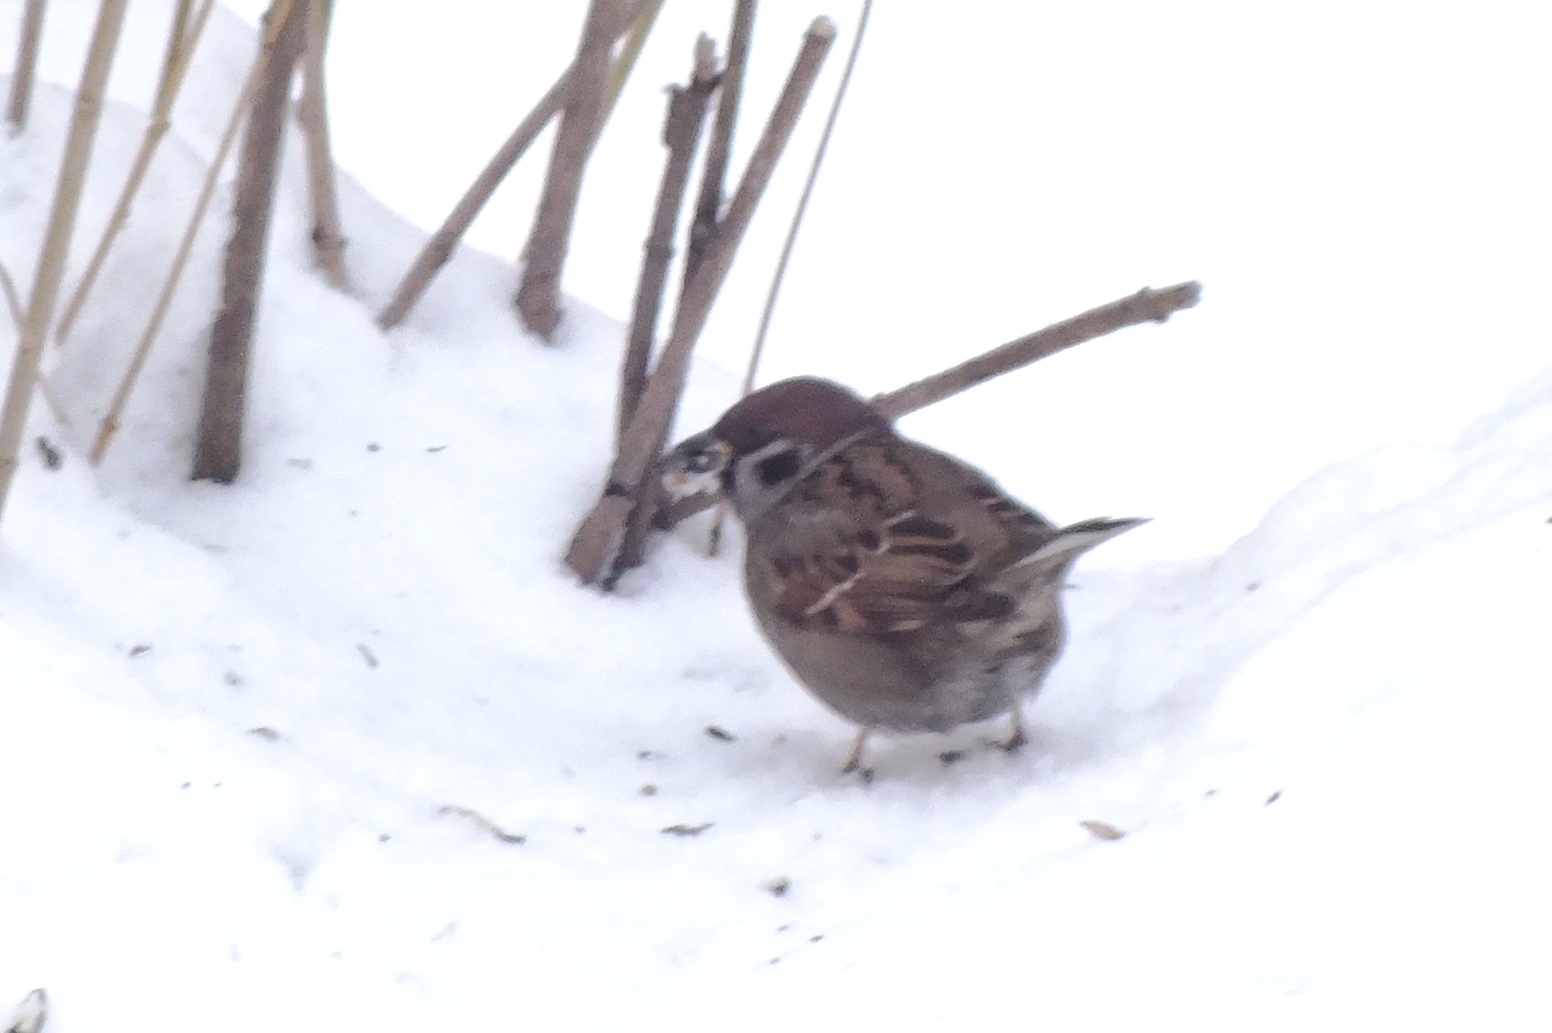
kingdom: Animalia
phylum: Chordata
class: Aves
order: Passeriformes
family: Passeridae
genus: Passer
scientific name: Passer montanus
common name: Eurasian tree sparrow
